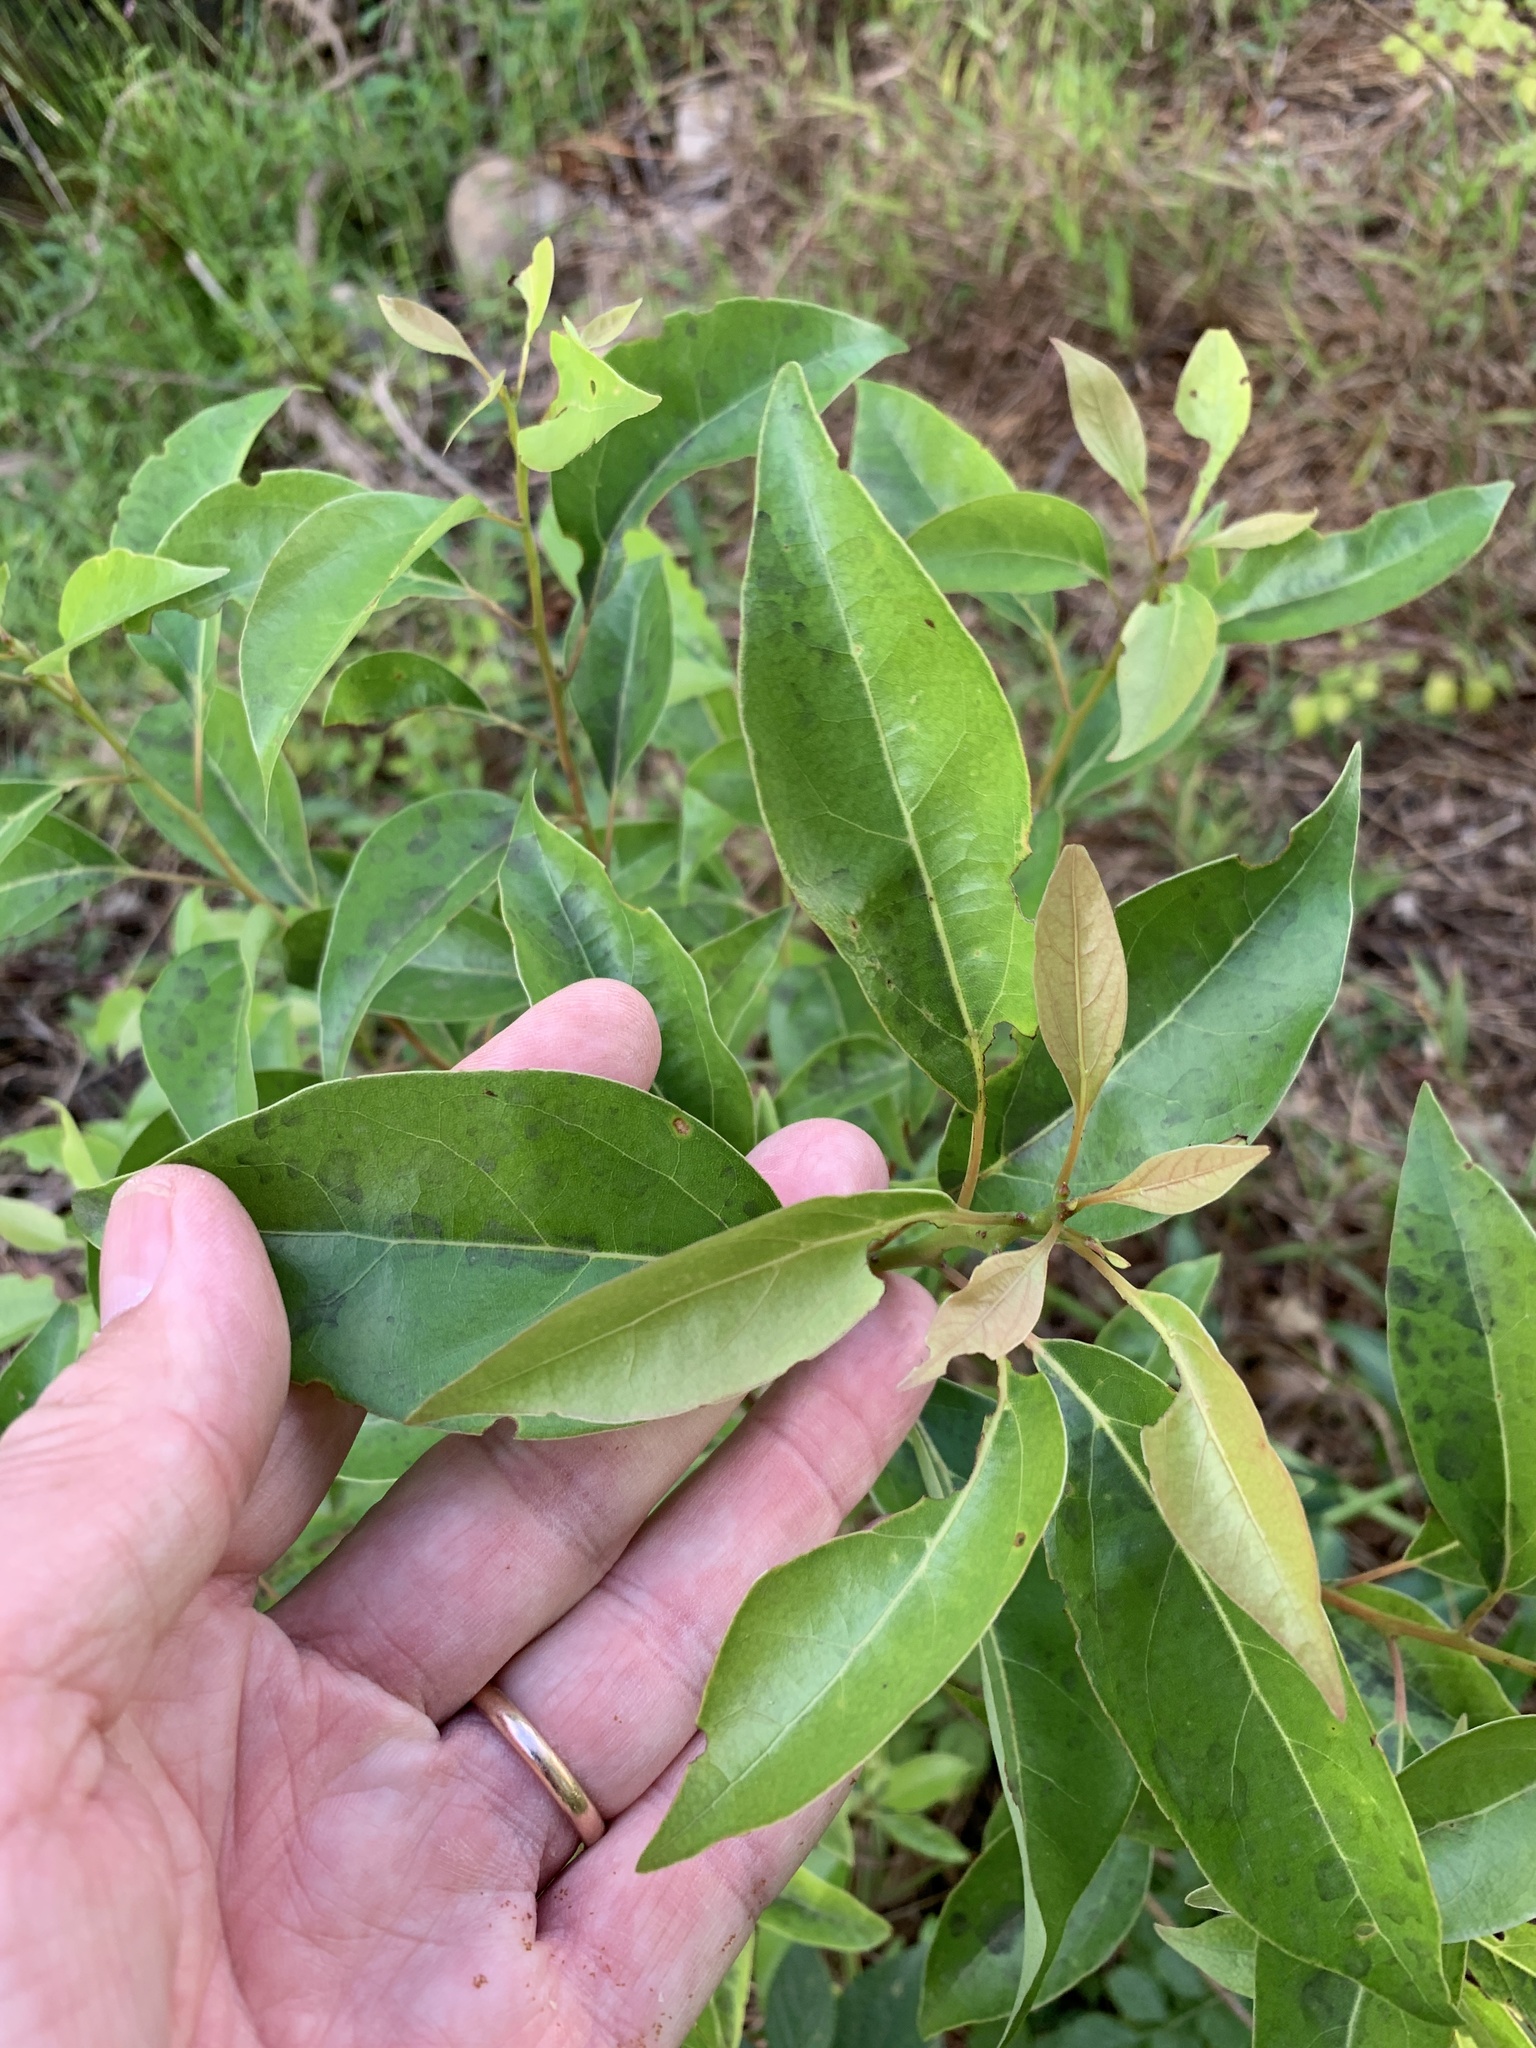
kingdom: Plantae
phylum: Tracheophyta
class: Magnoliopsida
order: Laurales
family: Lauraceae
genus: Cinnamomum
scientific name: Cinnamomum camphora
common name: Camphortree
